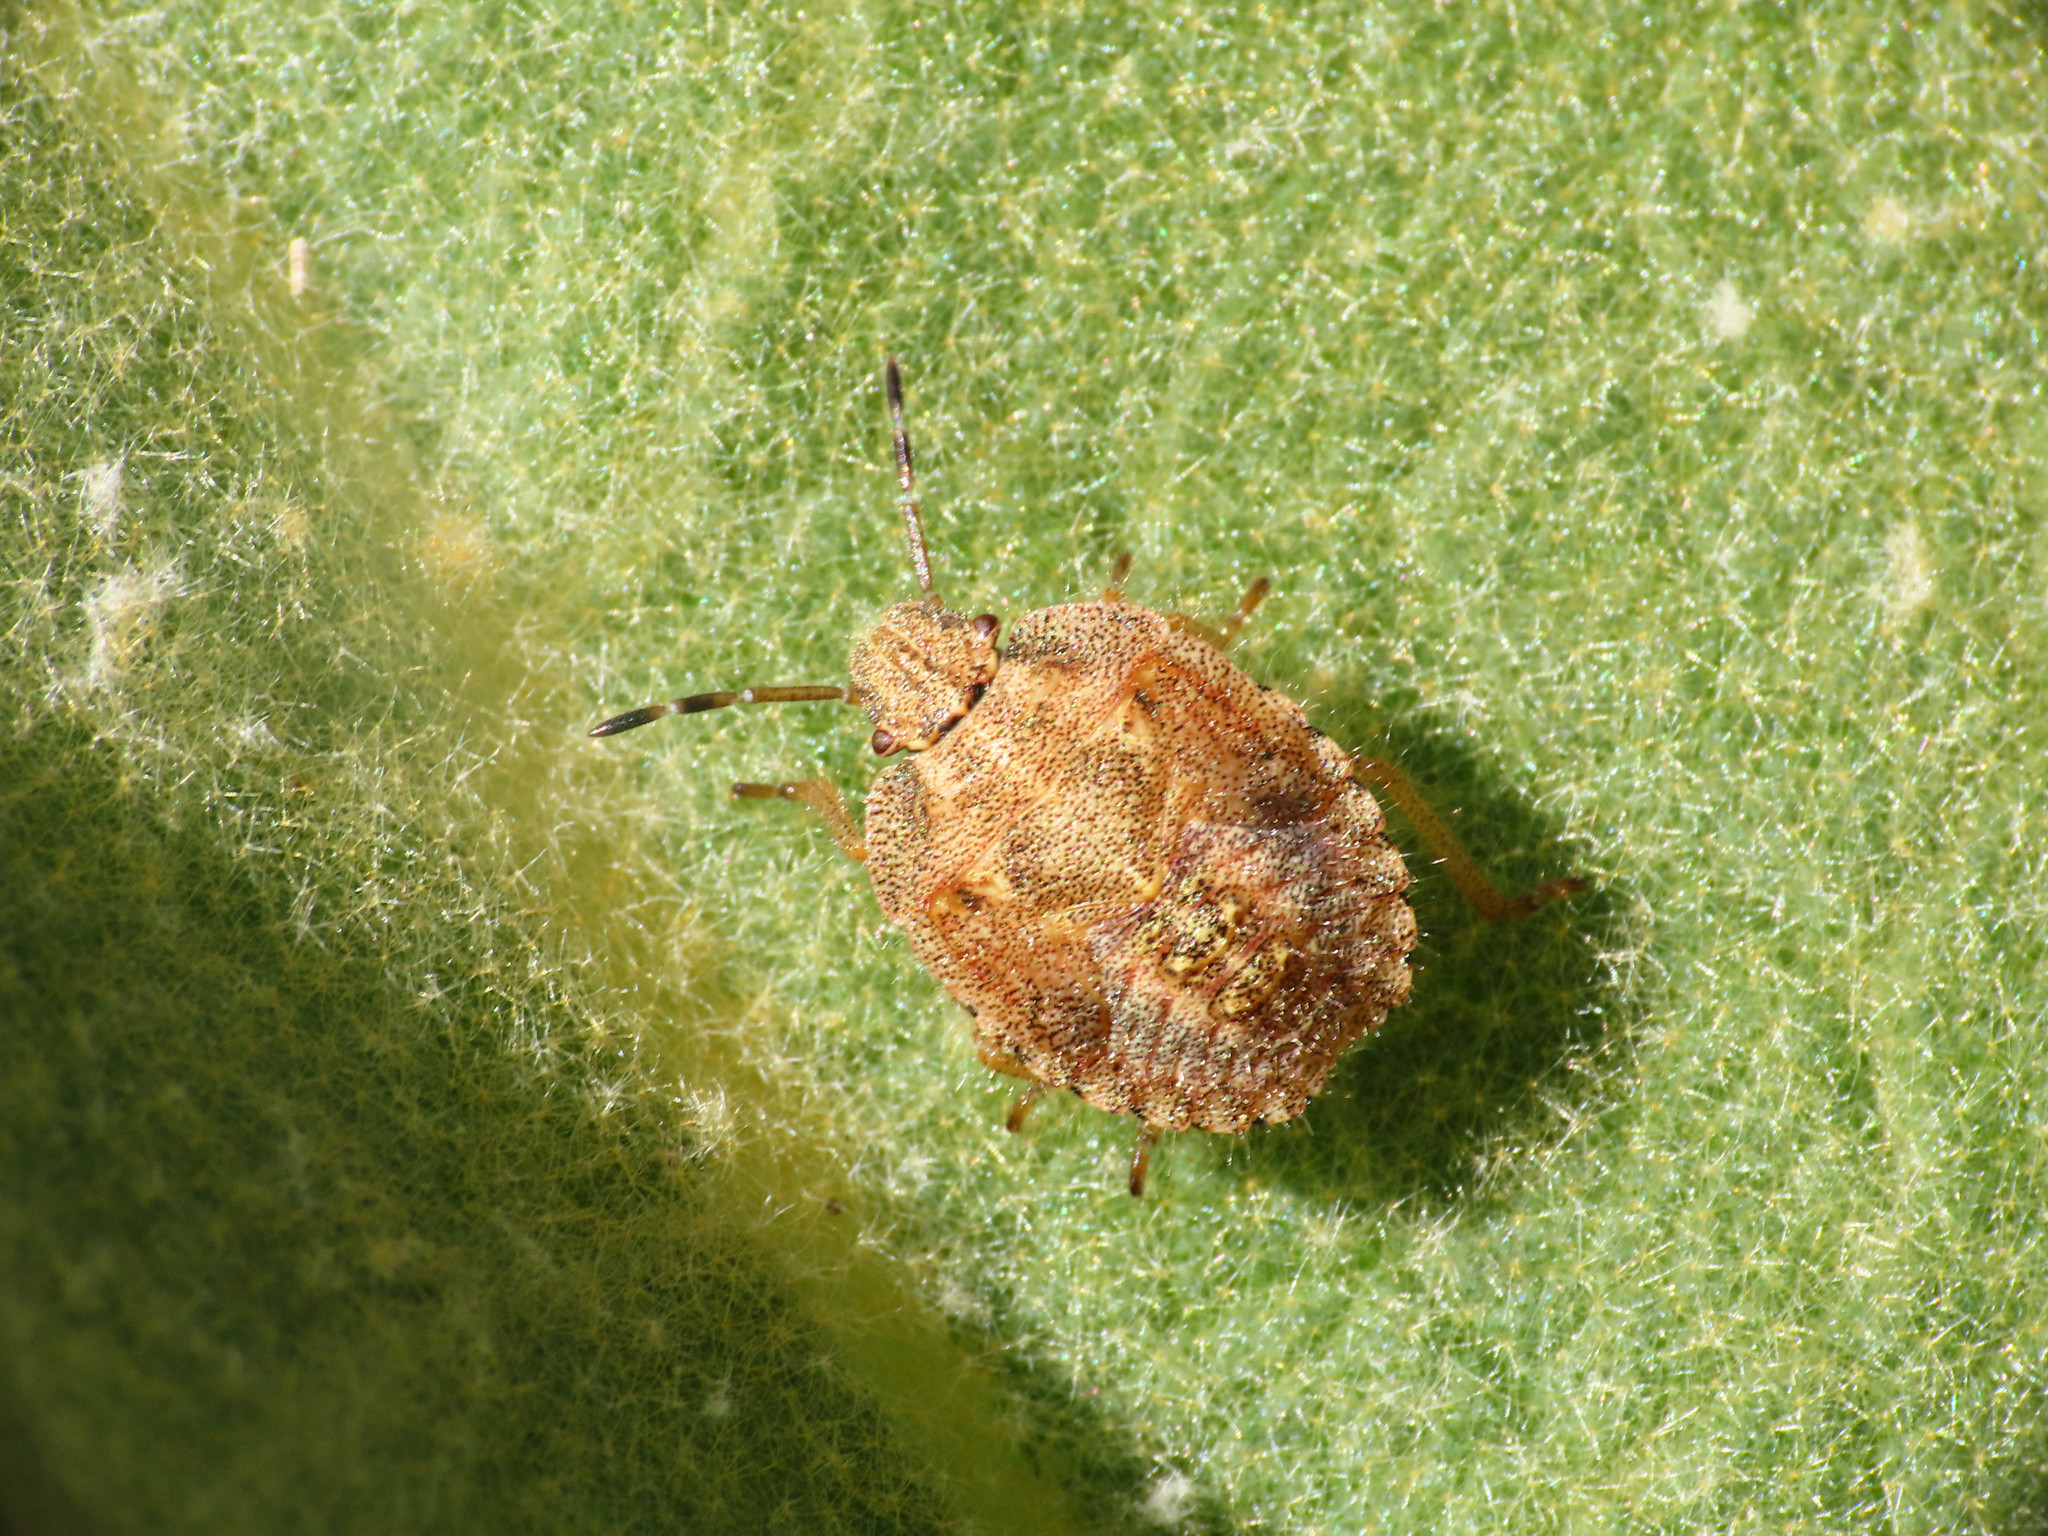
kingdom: Animalia
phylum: Arthropoda
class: Insecta
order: Hemiptera
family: Pentatomidae
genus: Dolycoris
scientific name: Dolycoris baccarum
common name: Sloe bug
